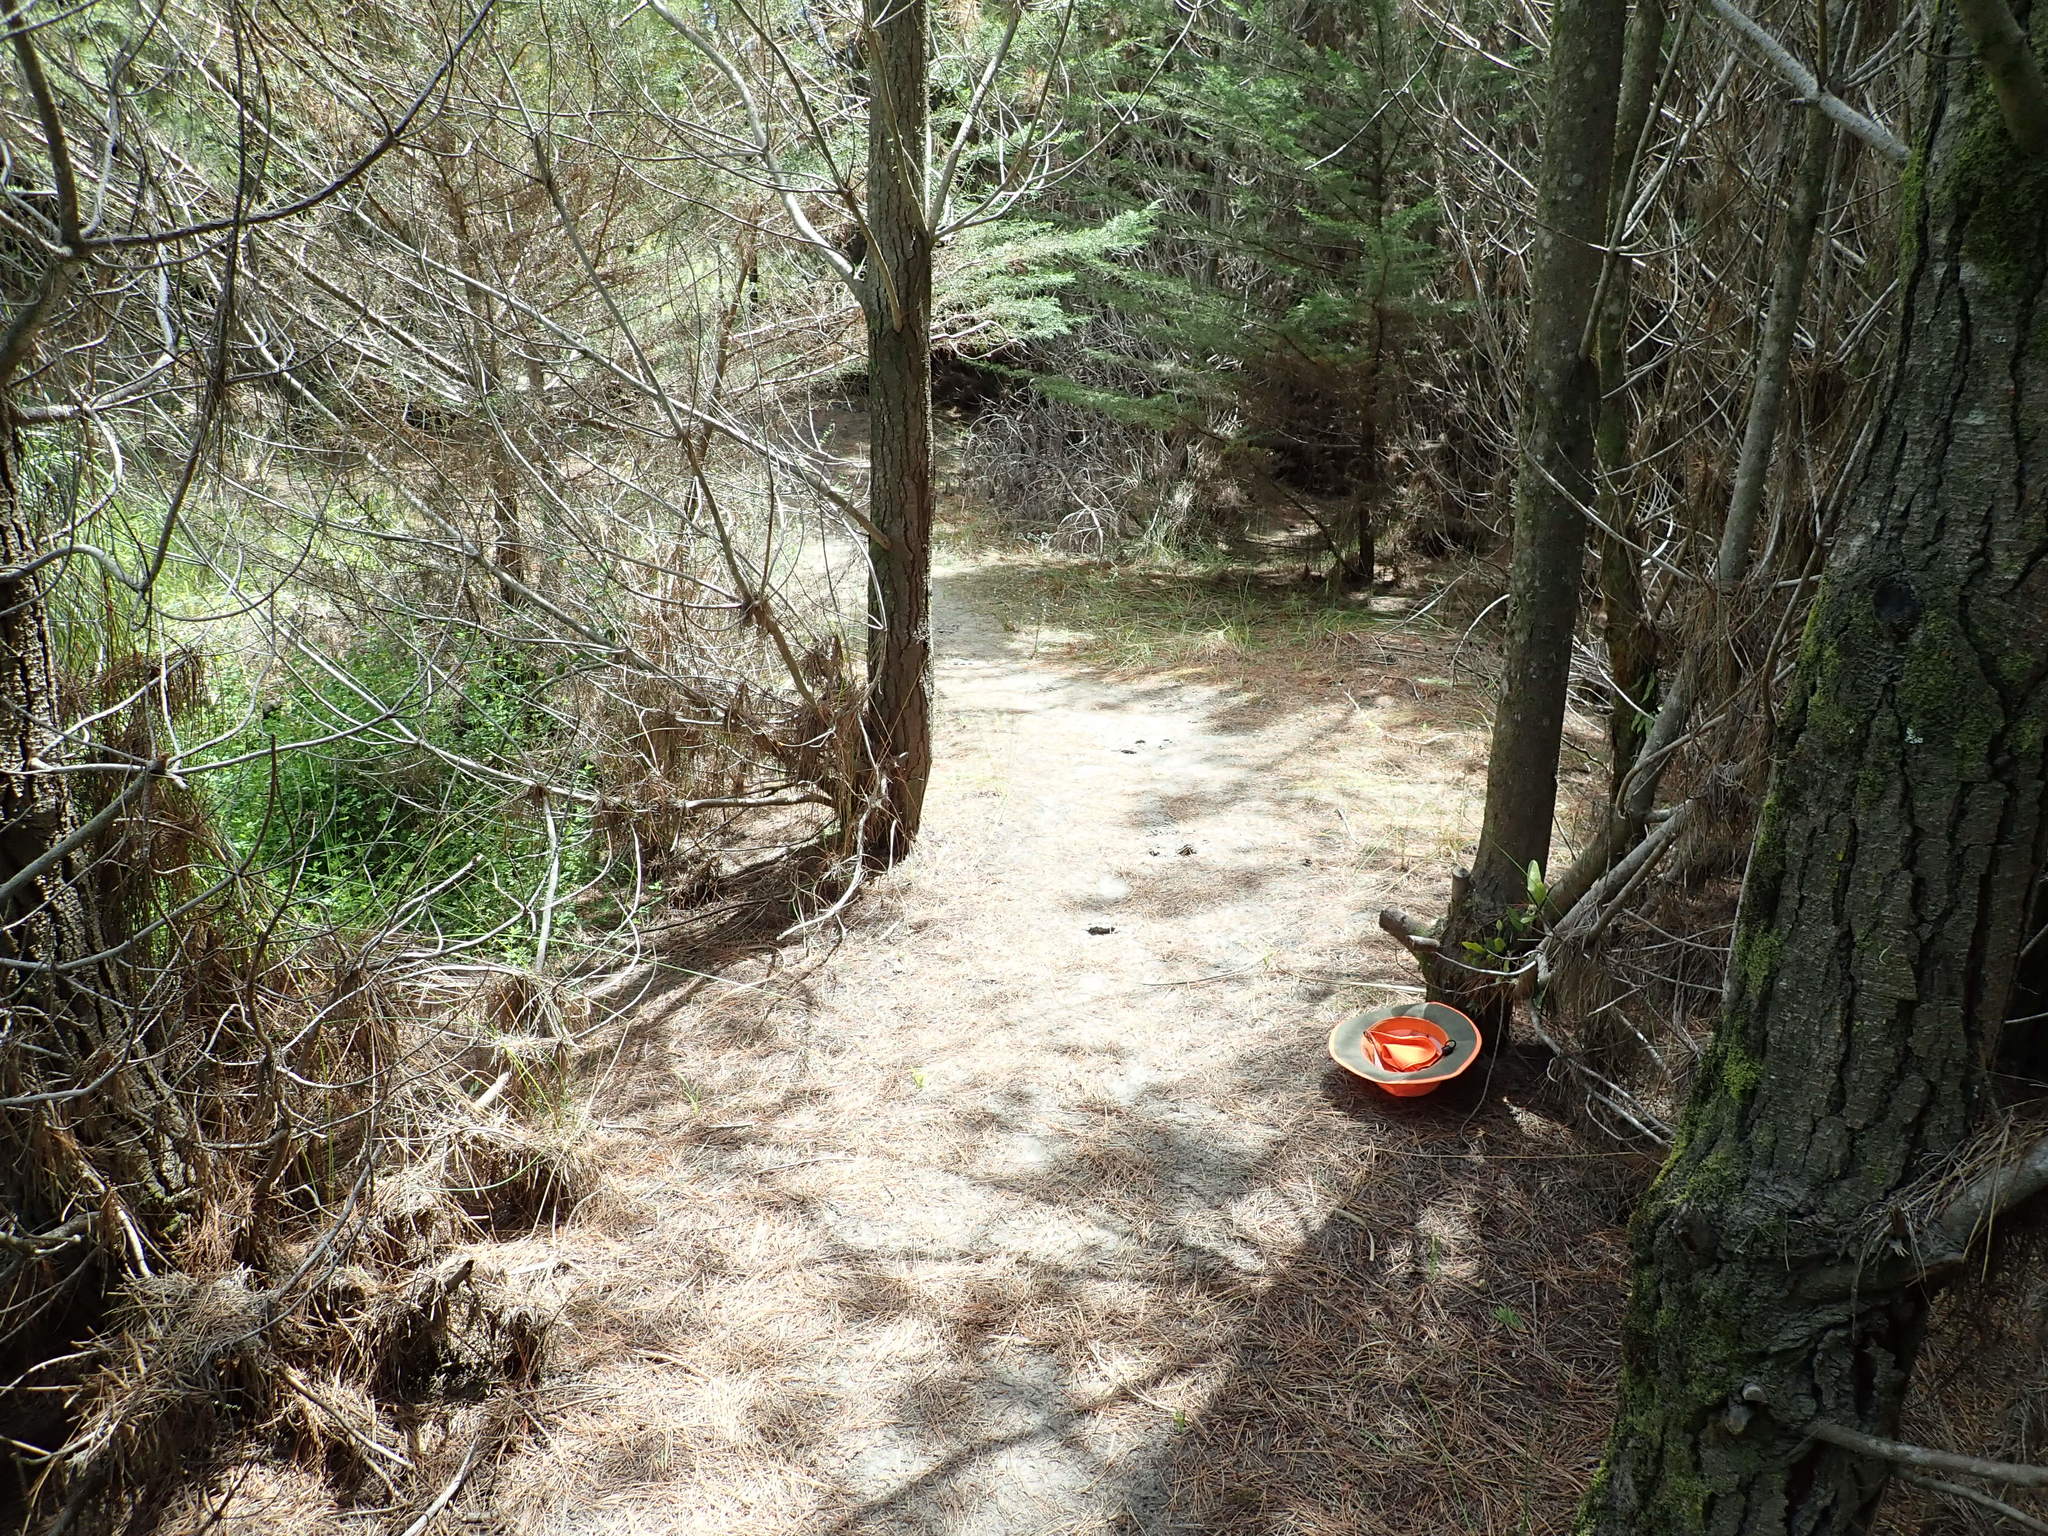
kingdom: Plantae
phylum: Tracheophyta
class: Polypodiopsida
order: Polypodiales
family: Polypodiaceae
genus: Lecanopteris
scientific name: Lecanopteris pustulata
